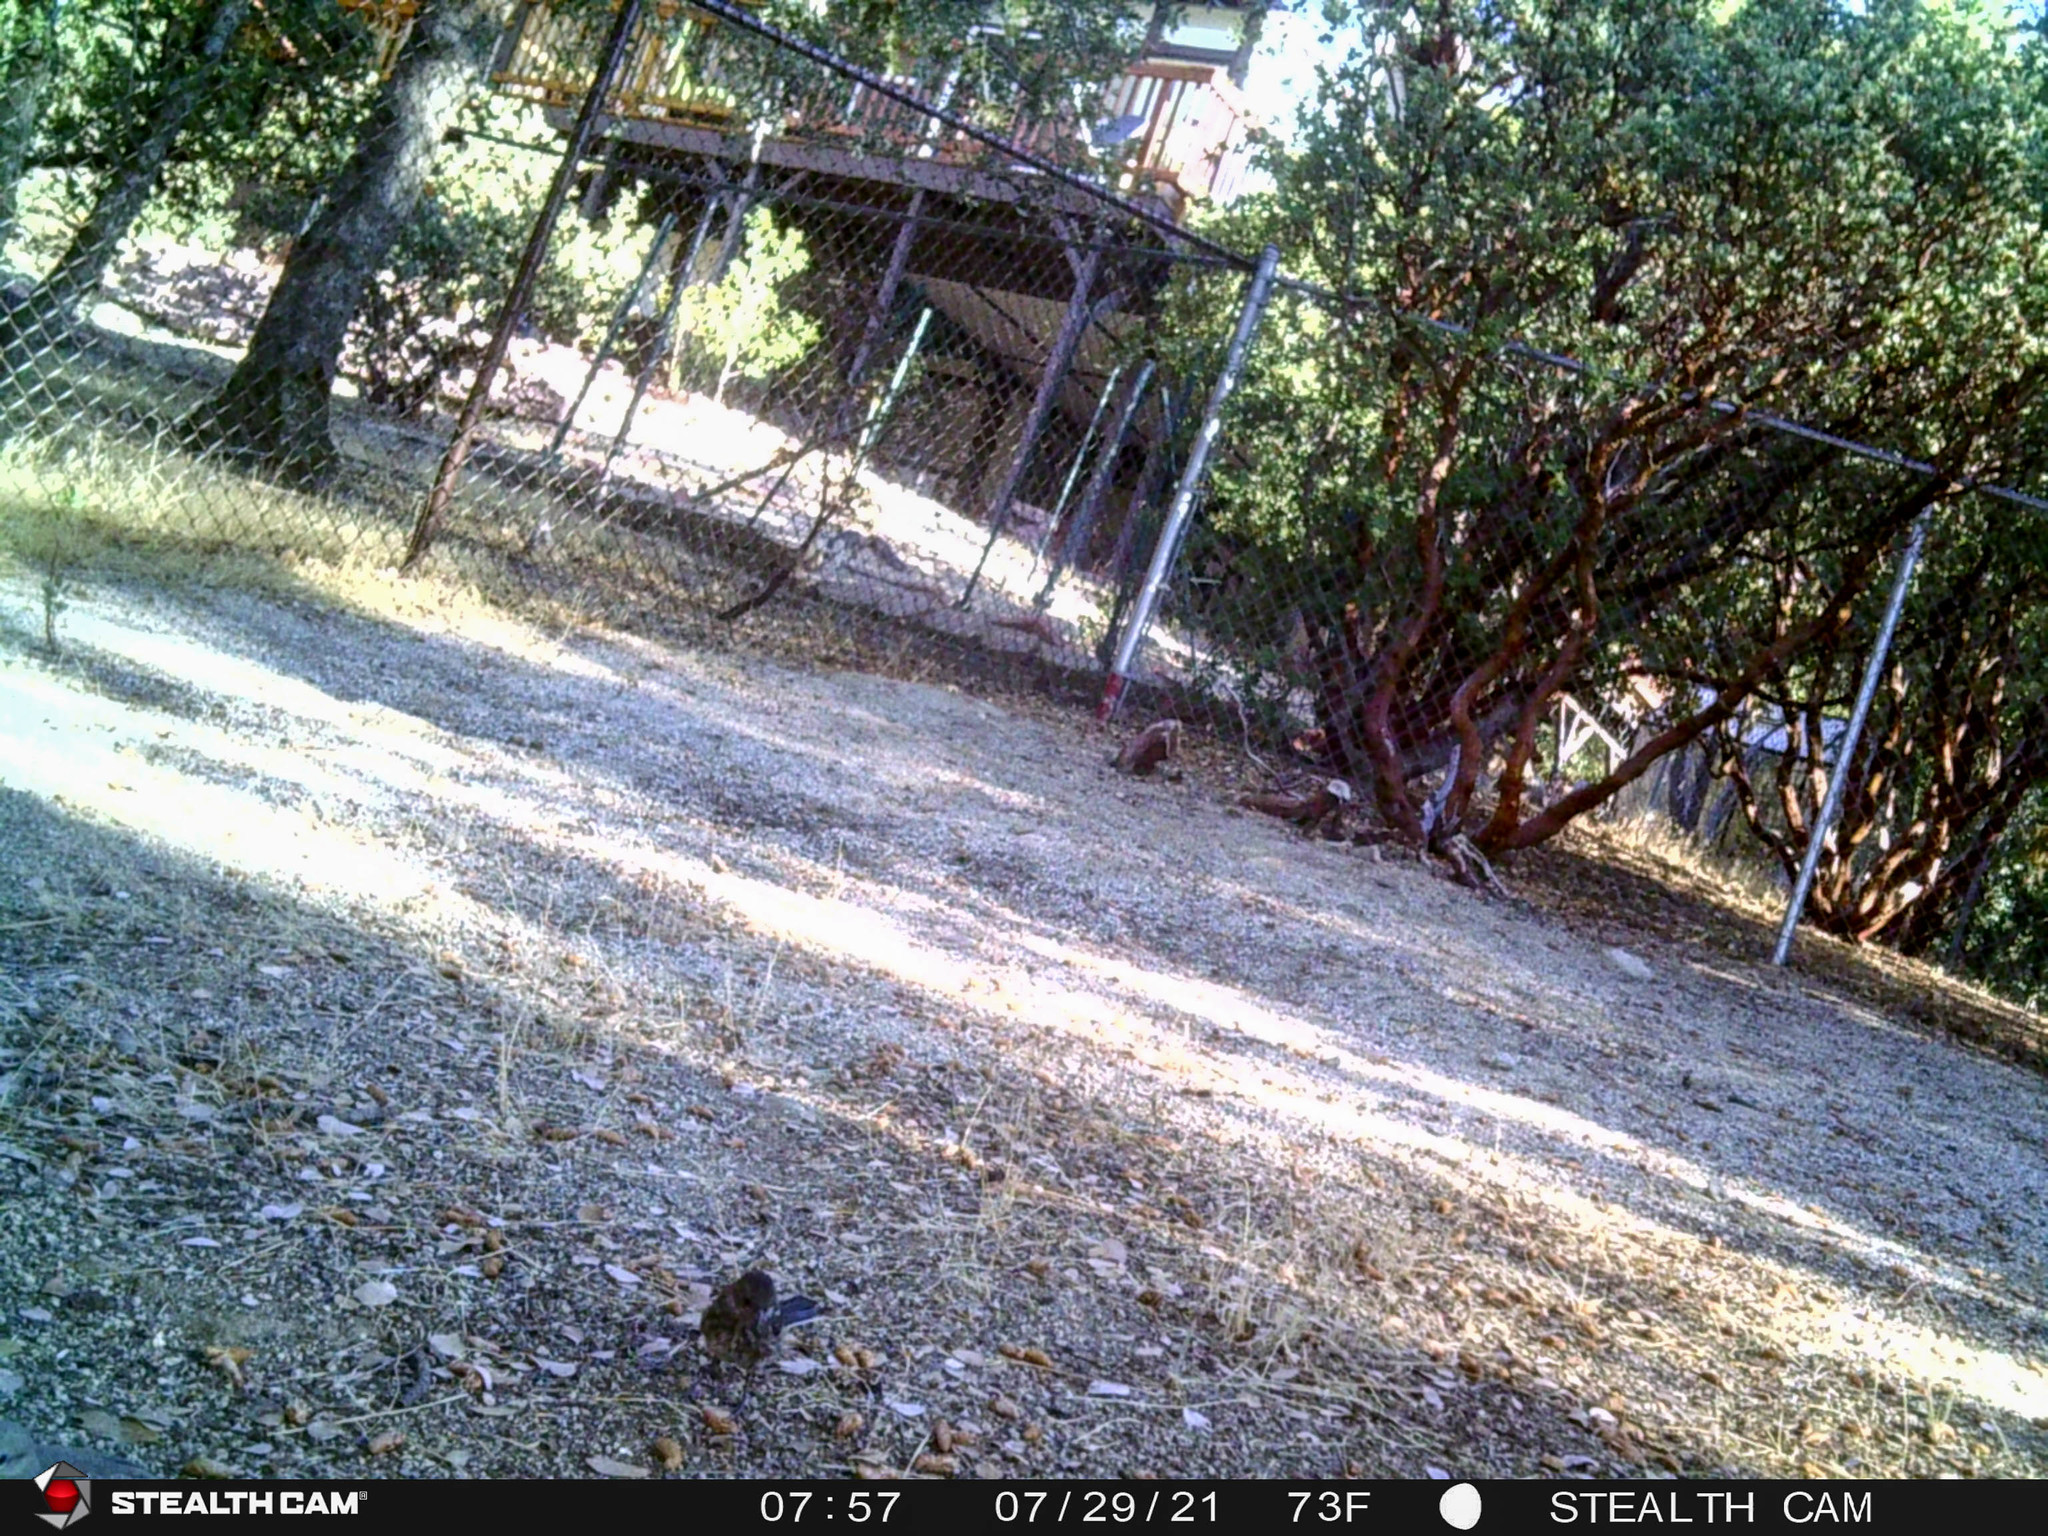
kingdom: Animalia
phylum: Chordata
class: Aves
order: Passeriformes
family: Passerellidae
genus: Pipilo
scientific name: Pipilo maculatus
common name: Spotted towhee
